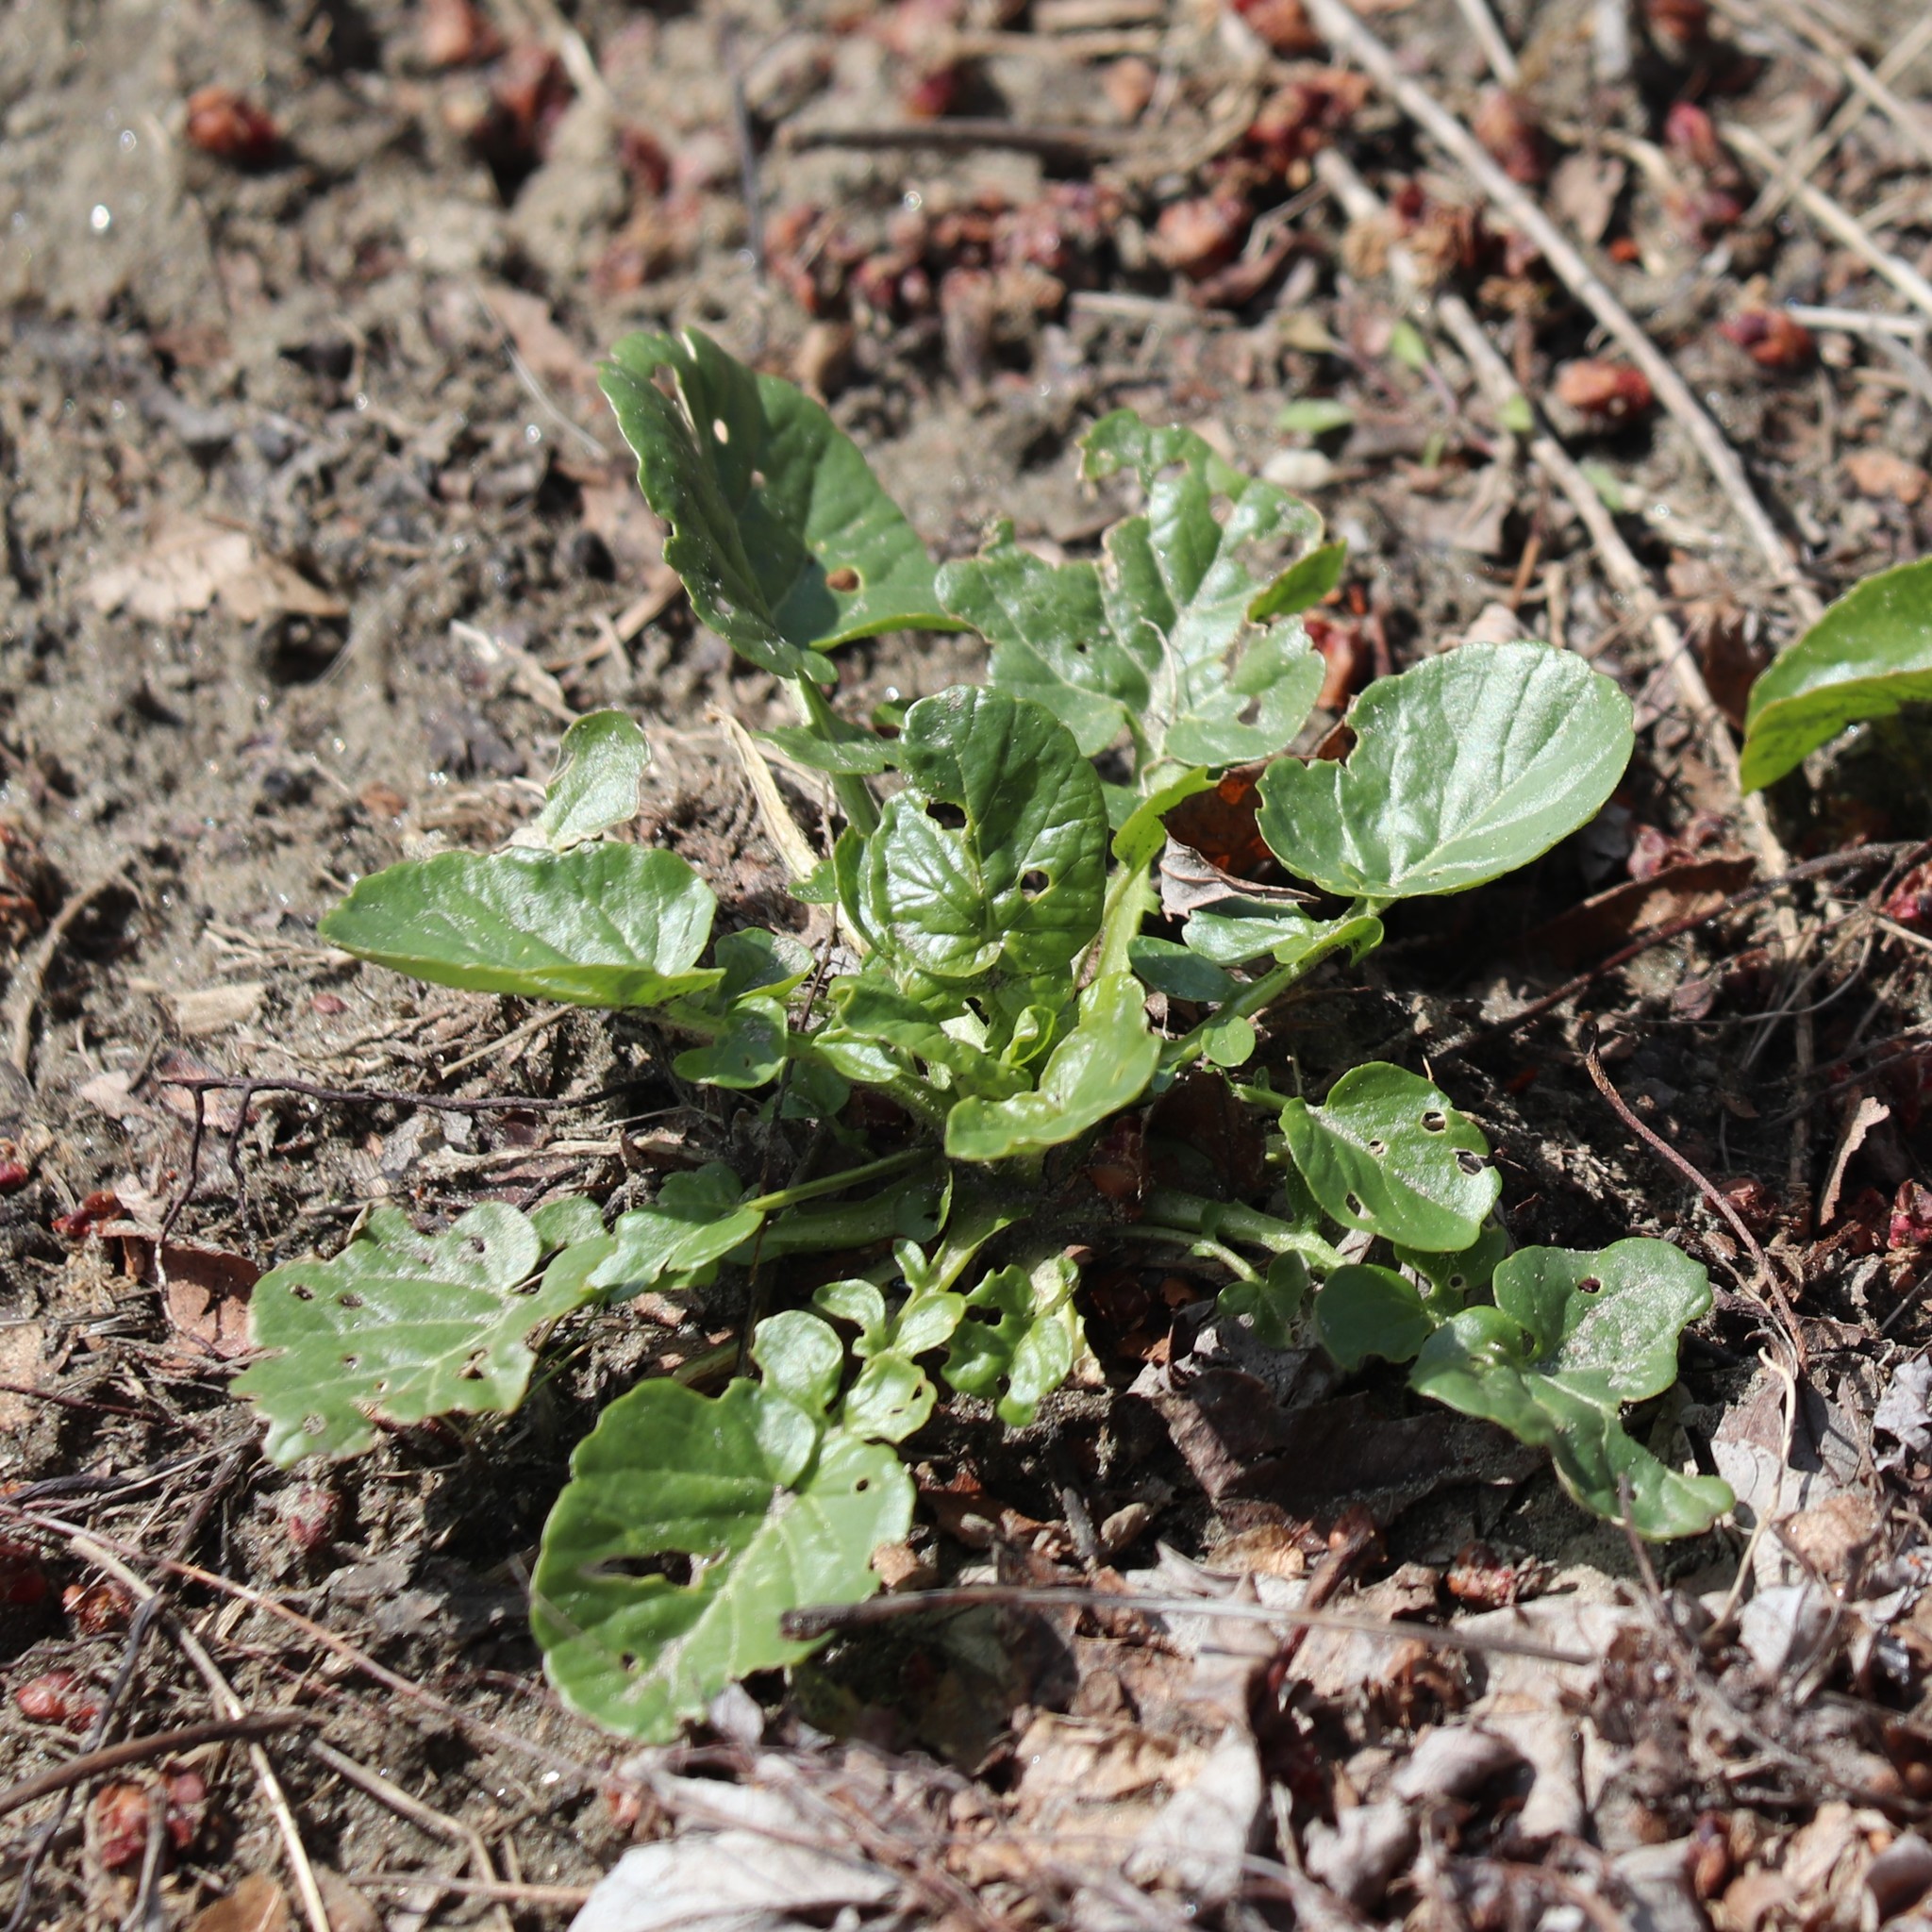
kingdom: Plantae
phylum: Tracheophyta
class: Magnoliopsida
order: Brassicales
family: Brassicaceae
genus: Barbarea
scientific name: Barbarea vulgaris
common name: Cressy-greens
